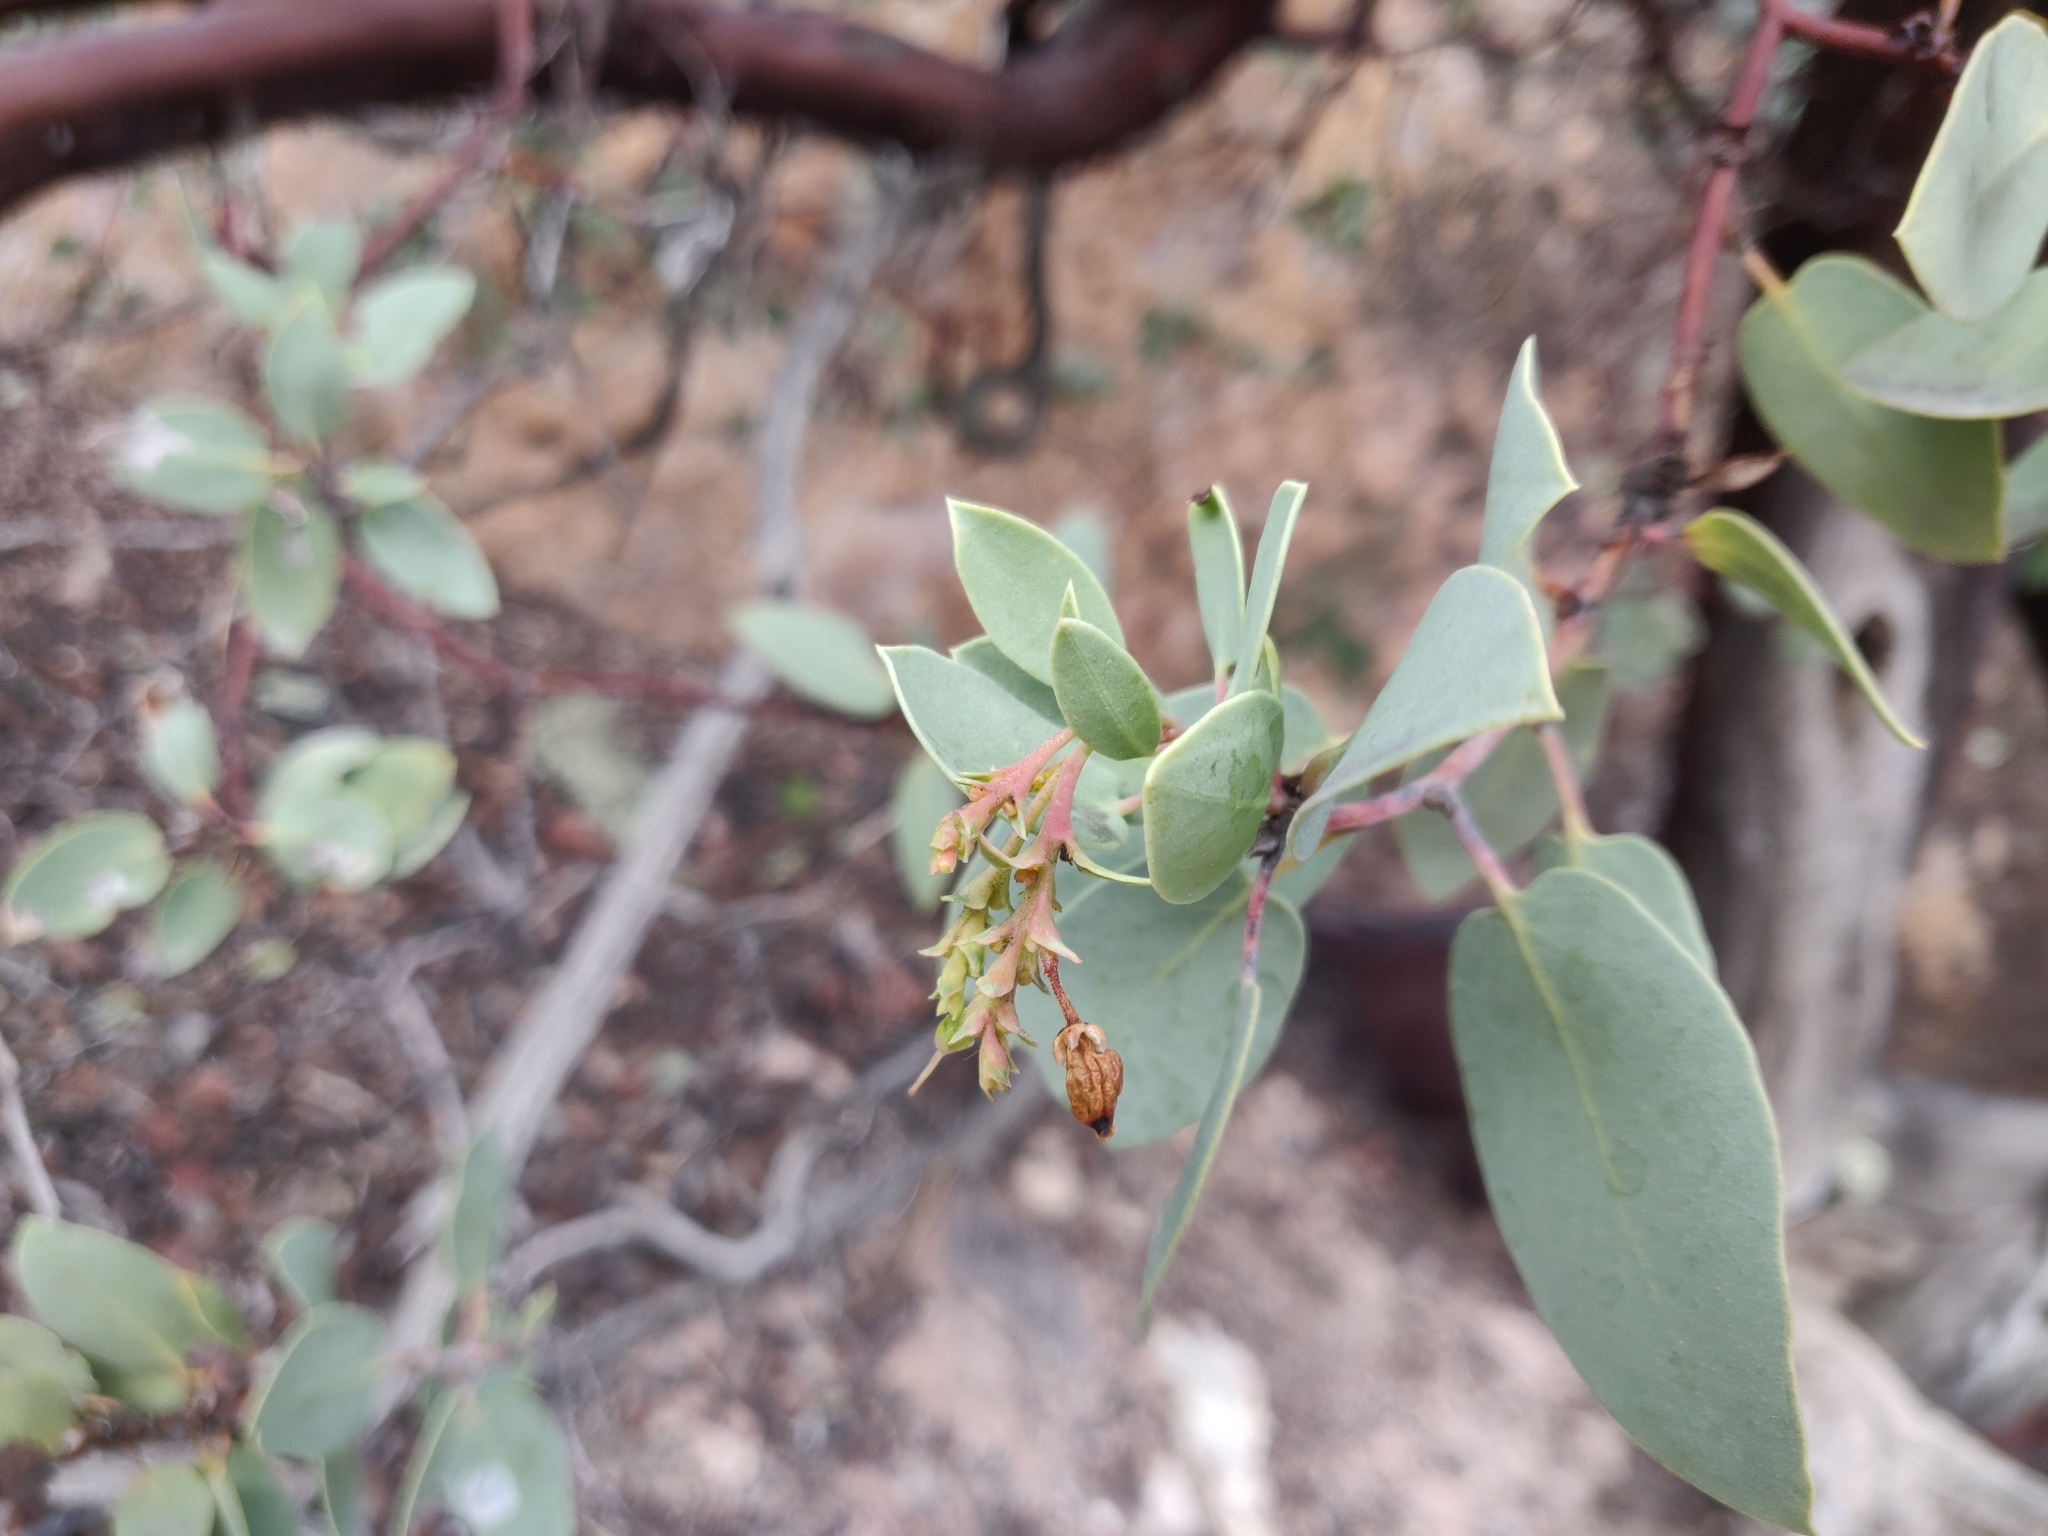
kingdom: Plantae
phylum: Tracheophyta
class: Magnoliopsida
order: Ericales
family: Ericaceae
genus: Arctostaphylos
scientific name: Arctostaphylos glauca
